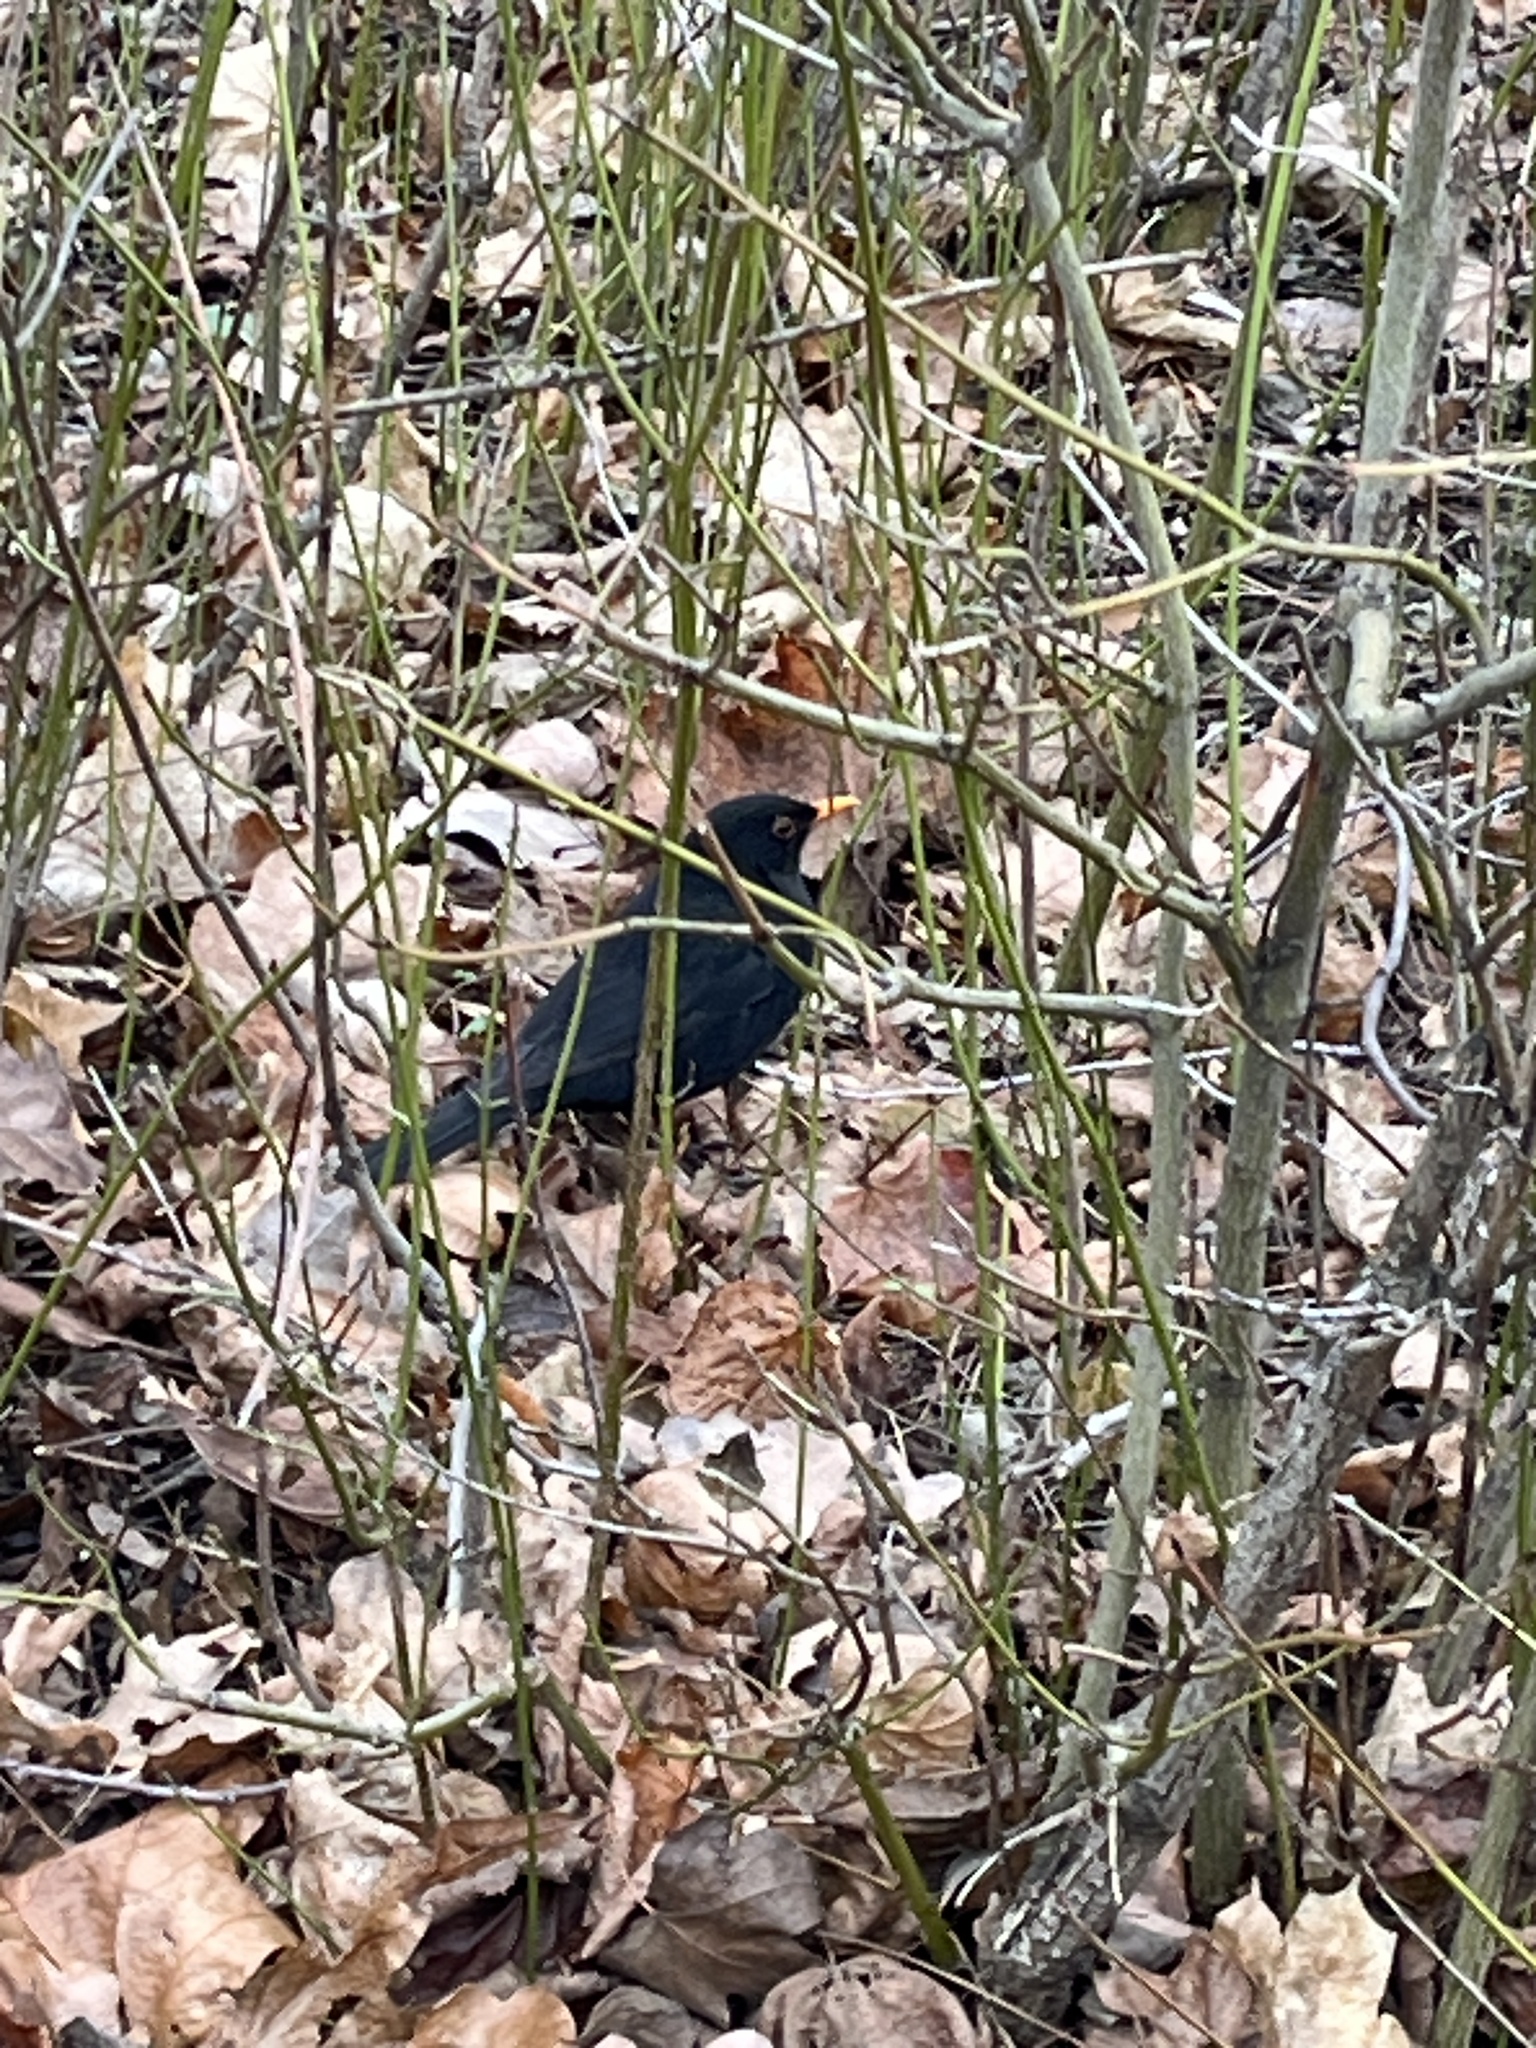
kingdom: Animalia
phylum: Chordata
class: Aves
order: Passeriformes
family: Turdidae
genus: Turdus
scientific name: Turdus merula
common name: Common blackbird
